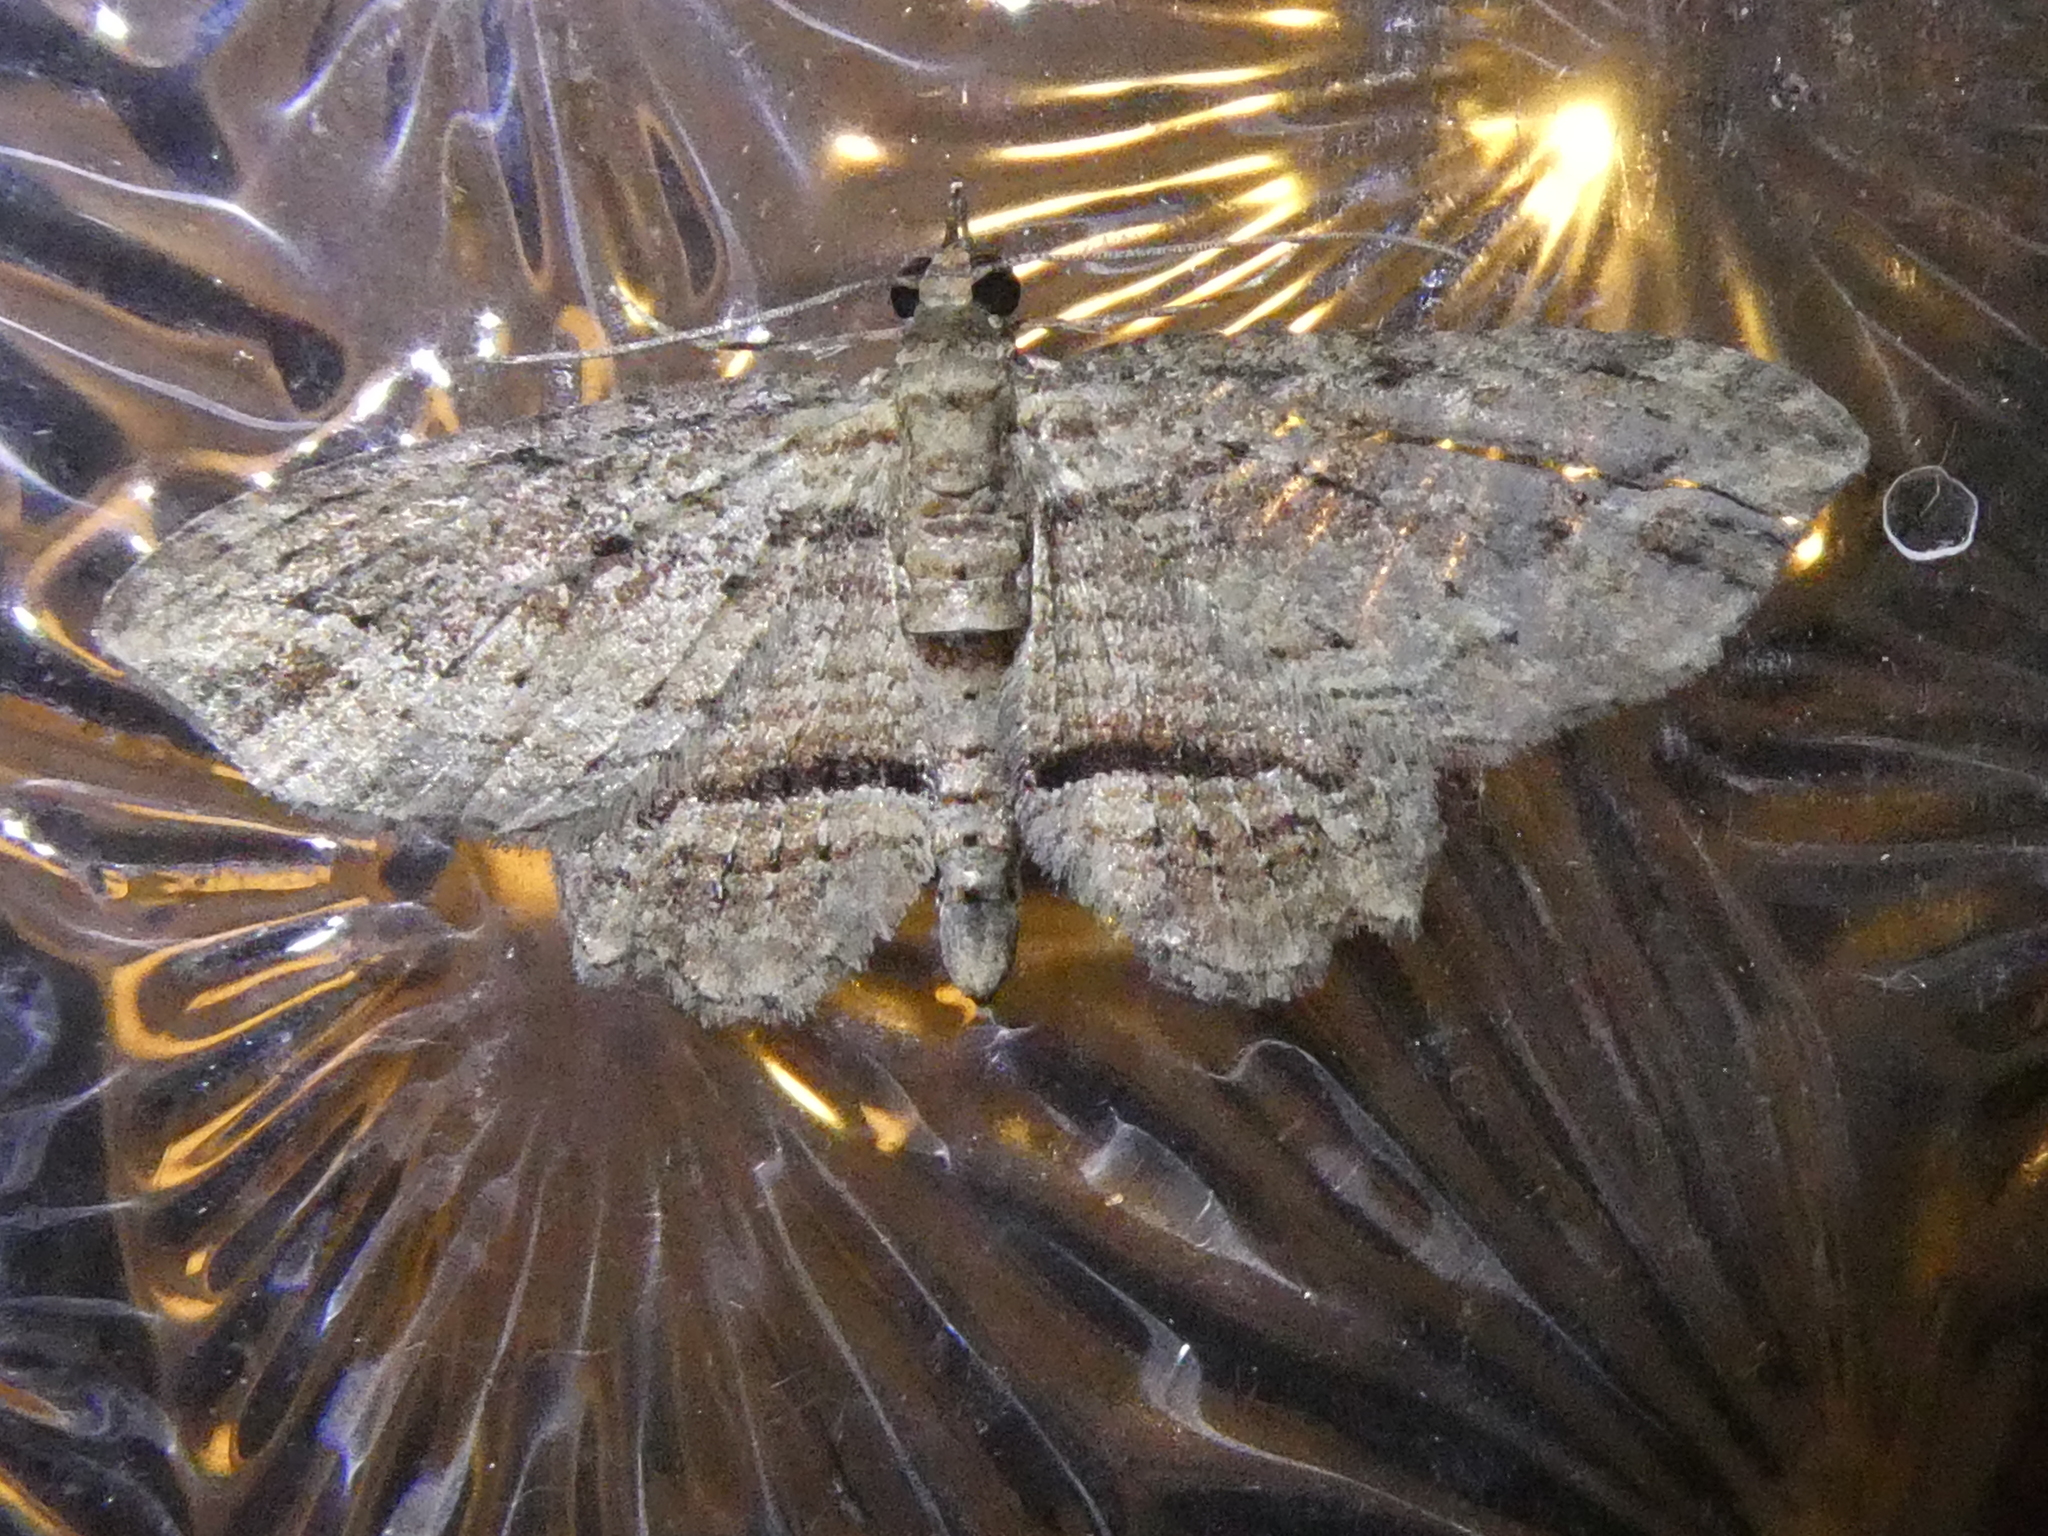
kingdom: Animalia
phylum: Arthropoda
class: Insecta
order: Lepidoptera
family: Geometridae
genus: Chloroclystis
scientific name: Chloroclystis filata
